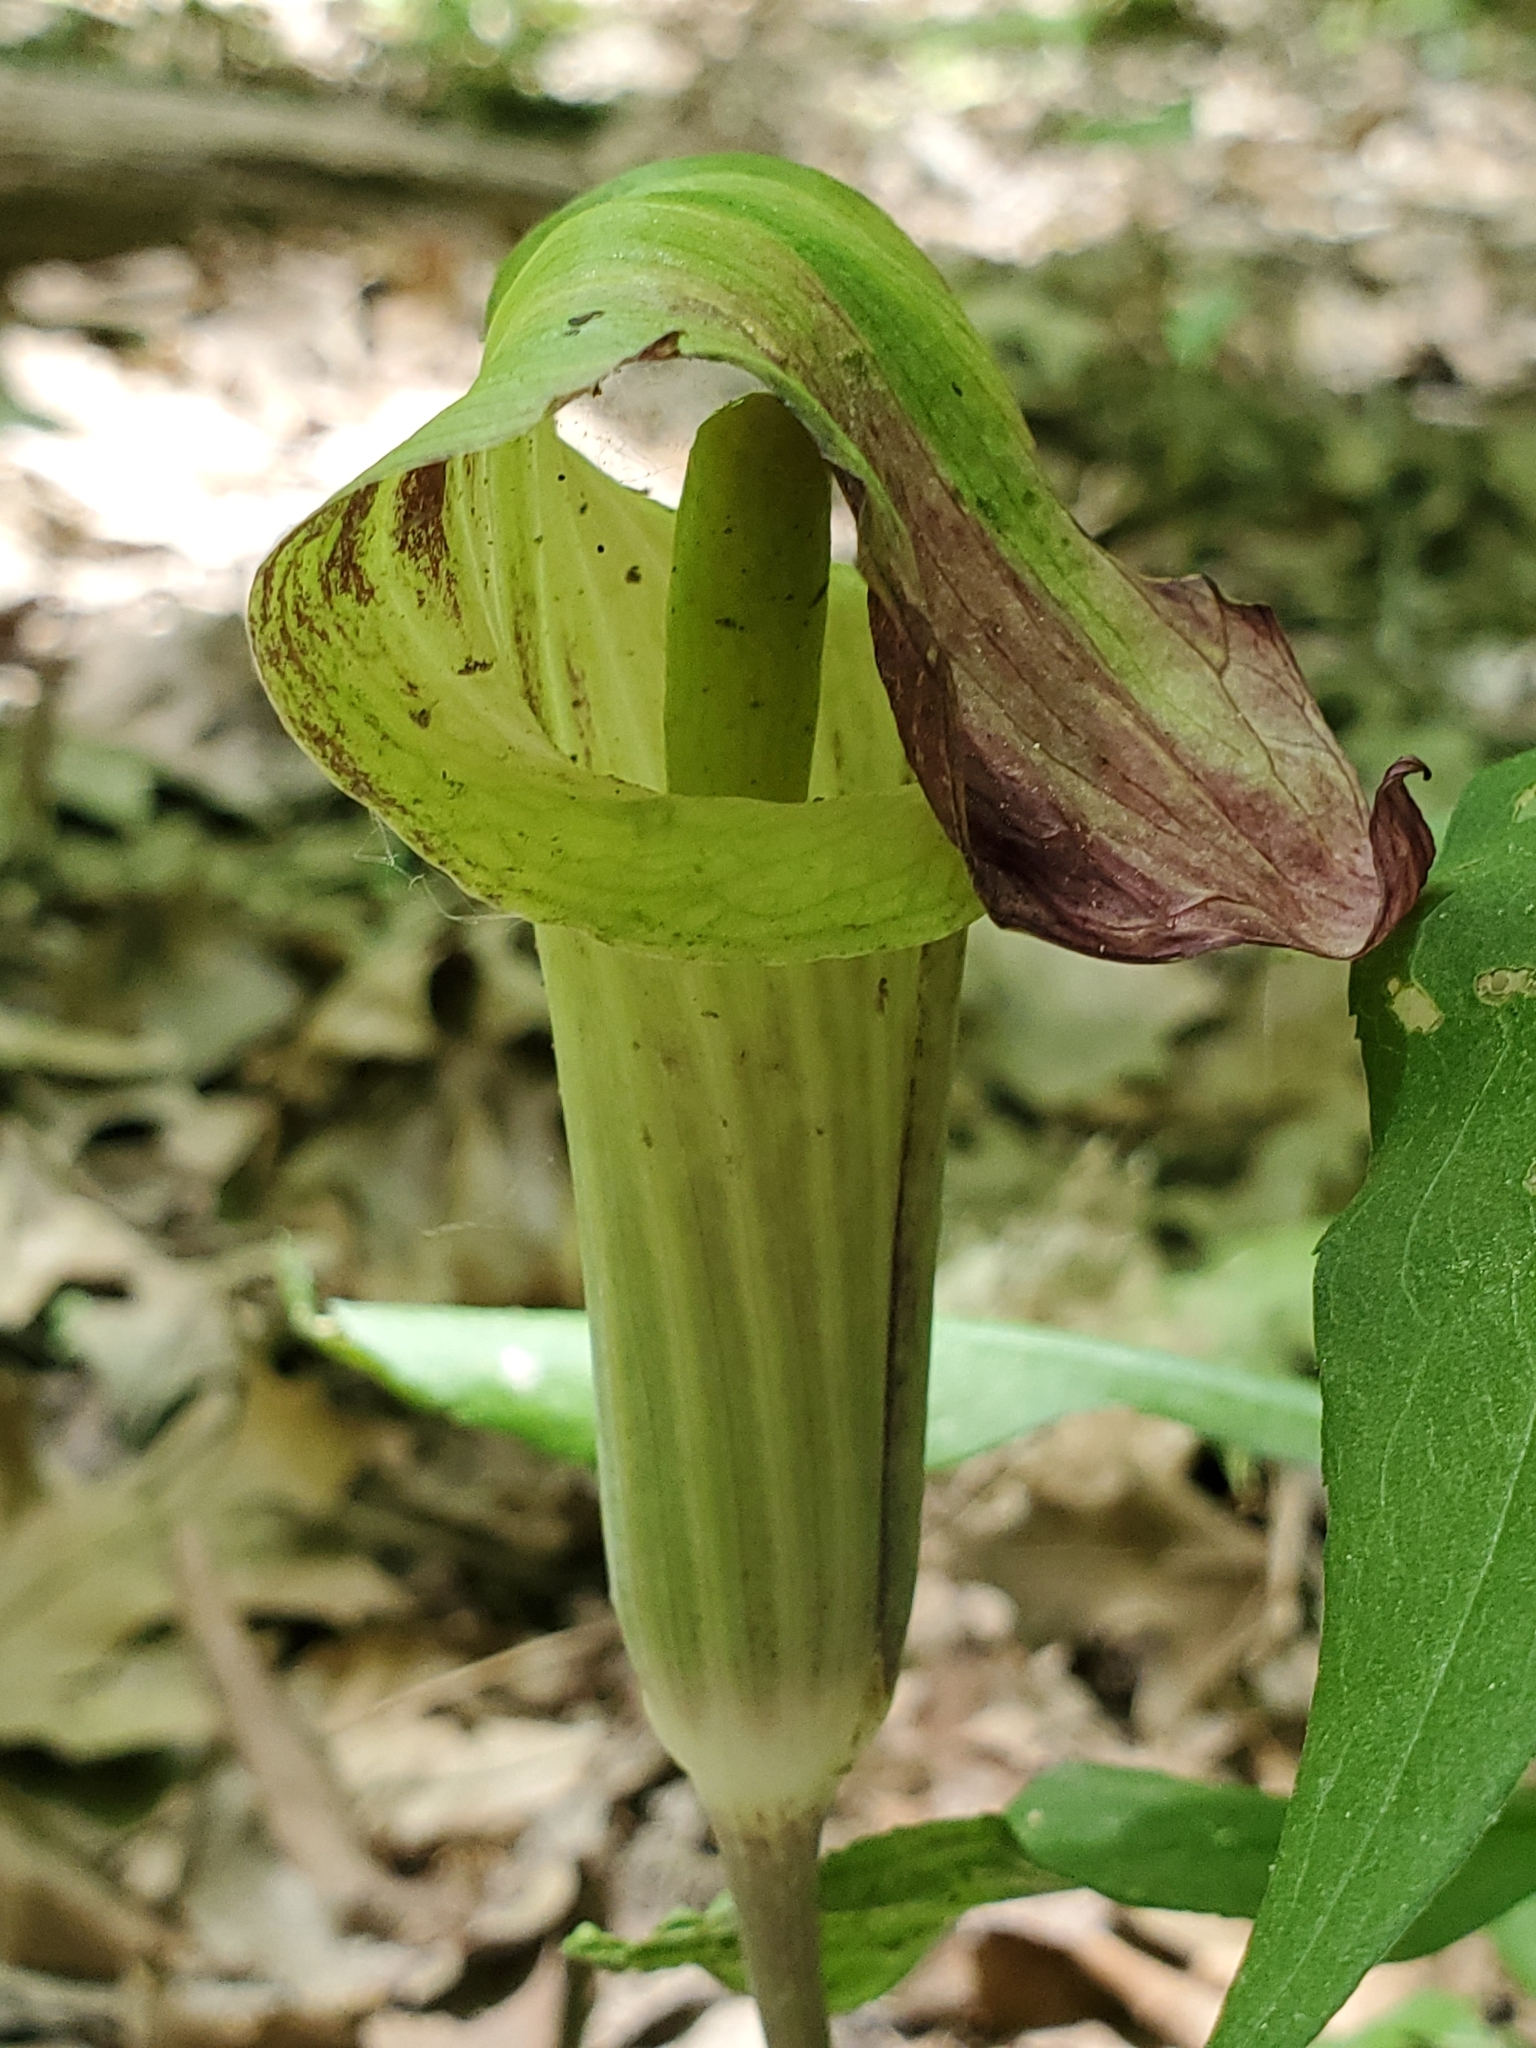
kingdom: Plantae
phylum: Tracheophyta
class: Liliopsida
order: Alismatales
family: Araceae
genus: Arisaema
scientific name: Arisaema triphyllum
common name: Jack-in-the-pulpit
